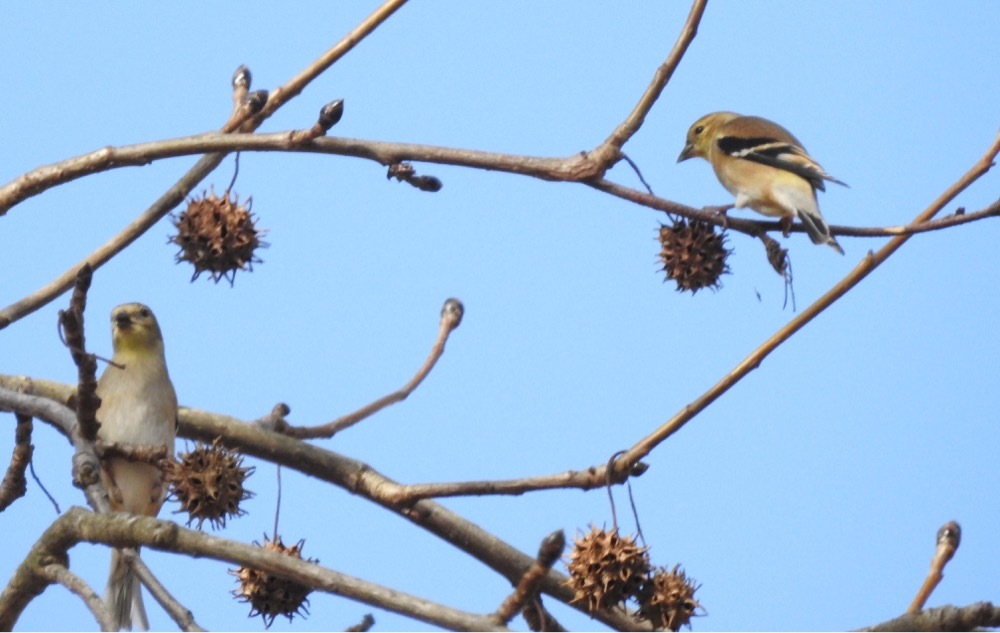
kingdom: Animalia
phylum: Chordata
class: Aves
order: Passeriformes
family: Fringillidae
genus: Spinus
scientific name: Spinus tristis
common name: American goldfinch
